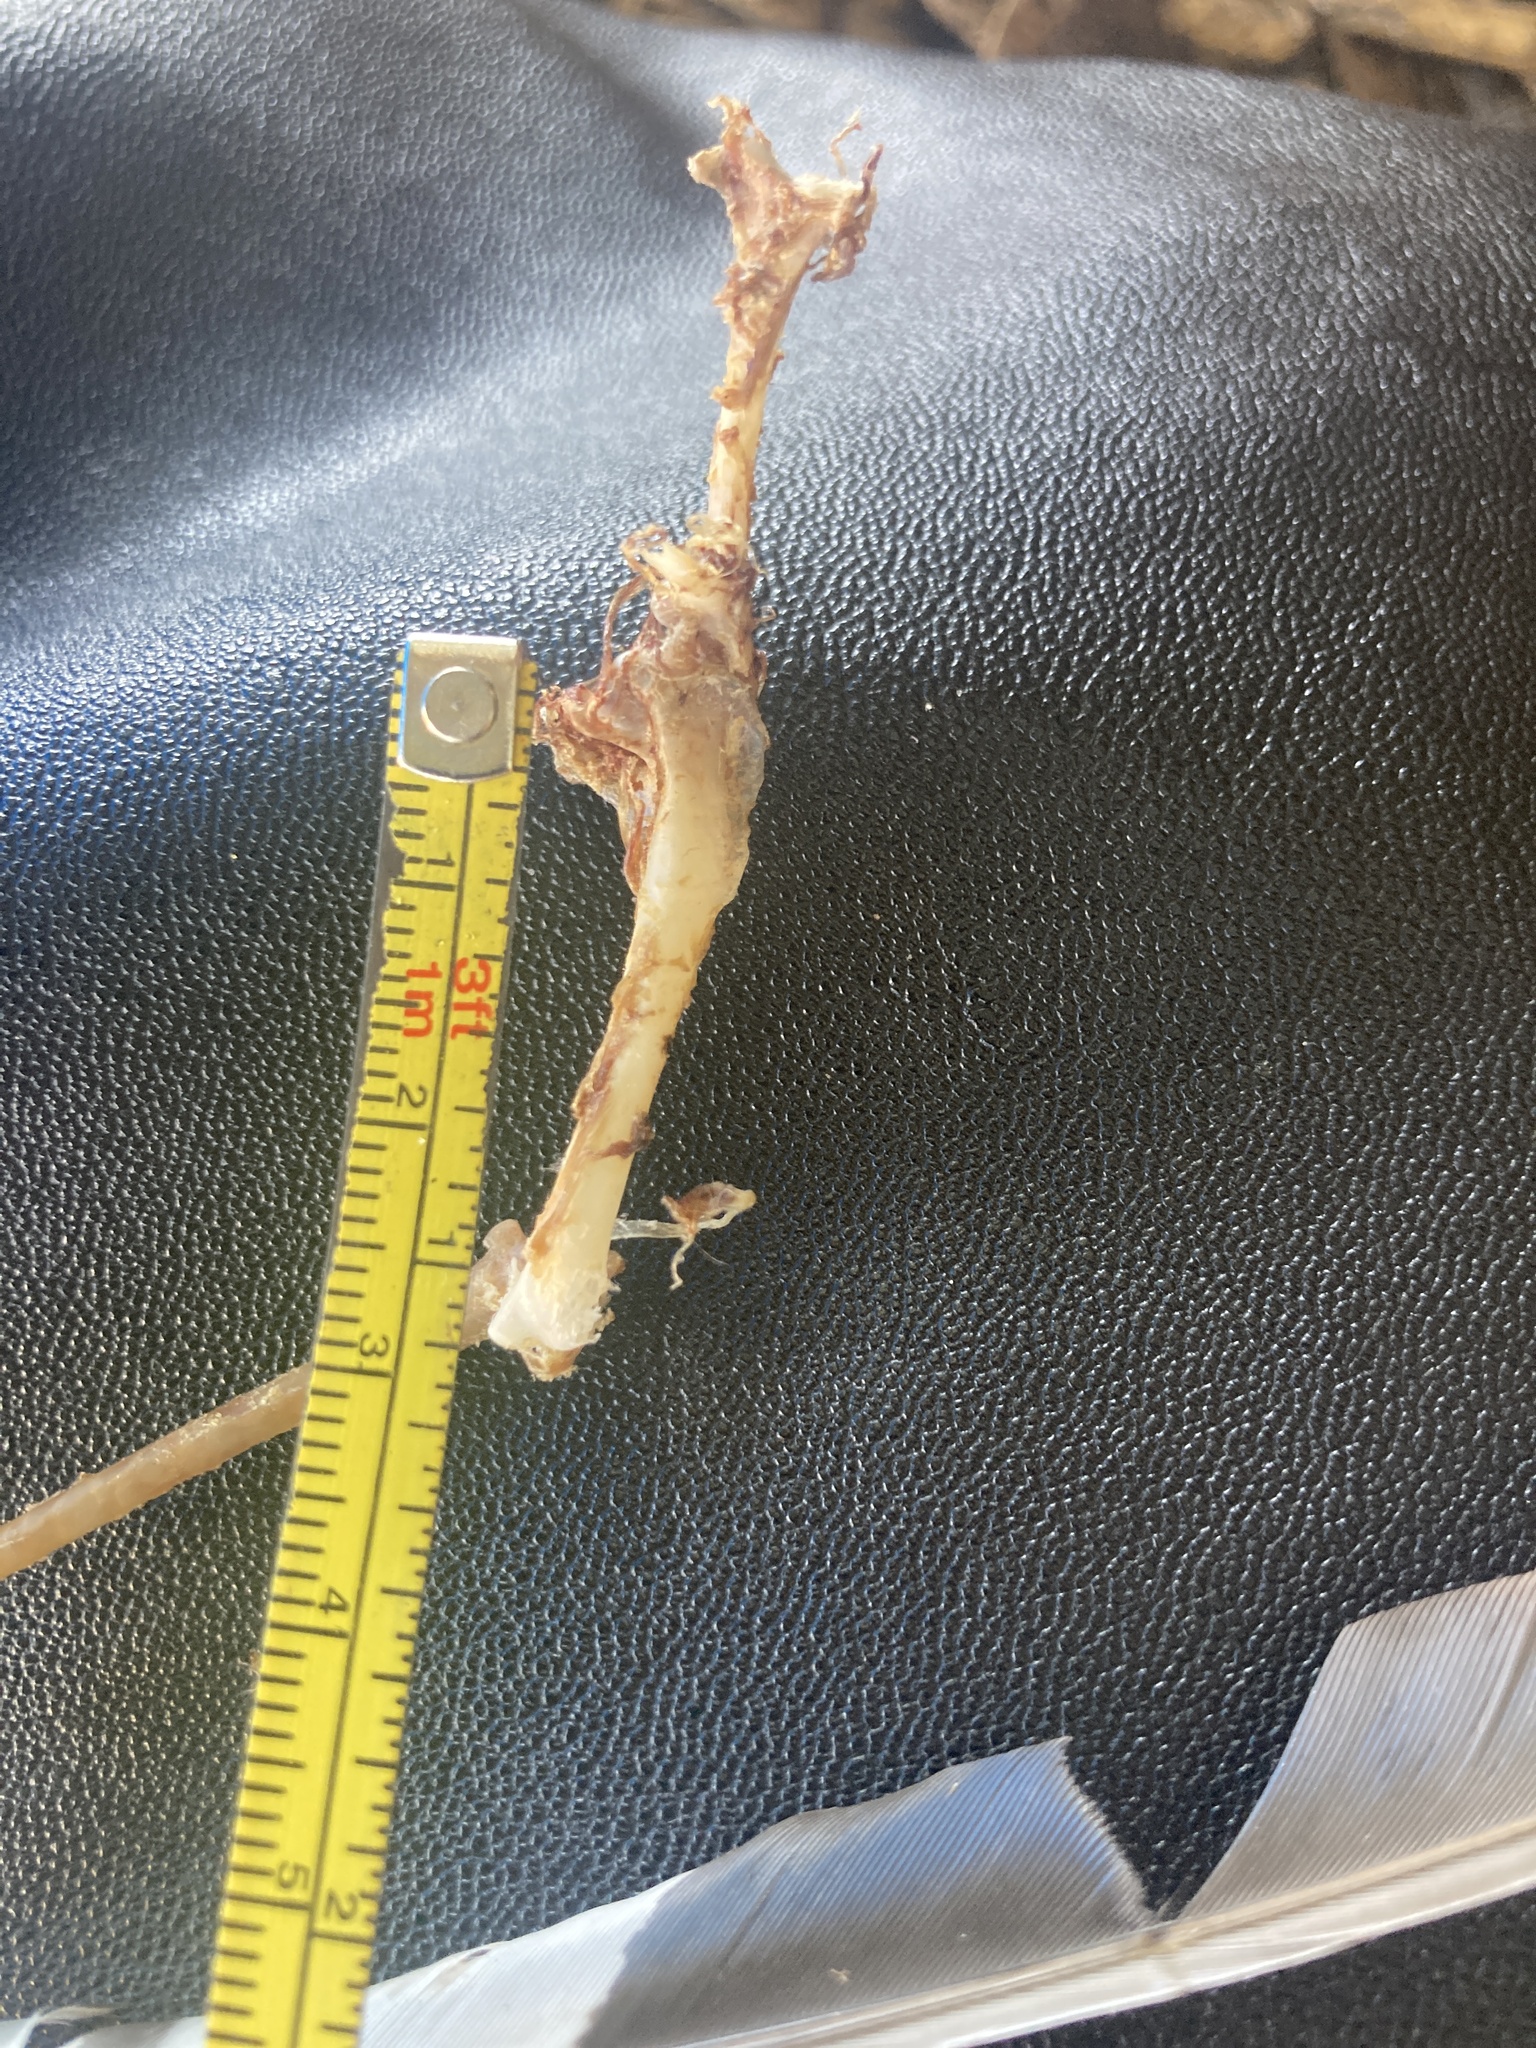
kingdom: Animalia
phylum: Chordata
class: Aves
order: Piciformes
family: Picidae
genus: Melanerpes
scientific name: Melanerpes carolinus
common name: Red-bellied woodpecker
